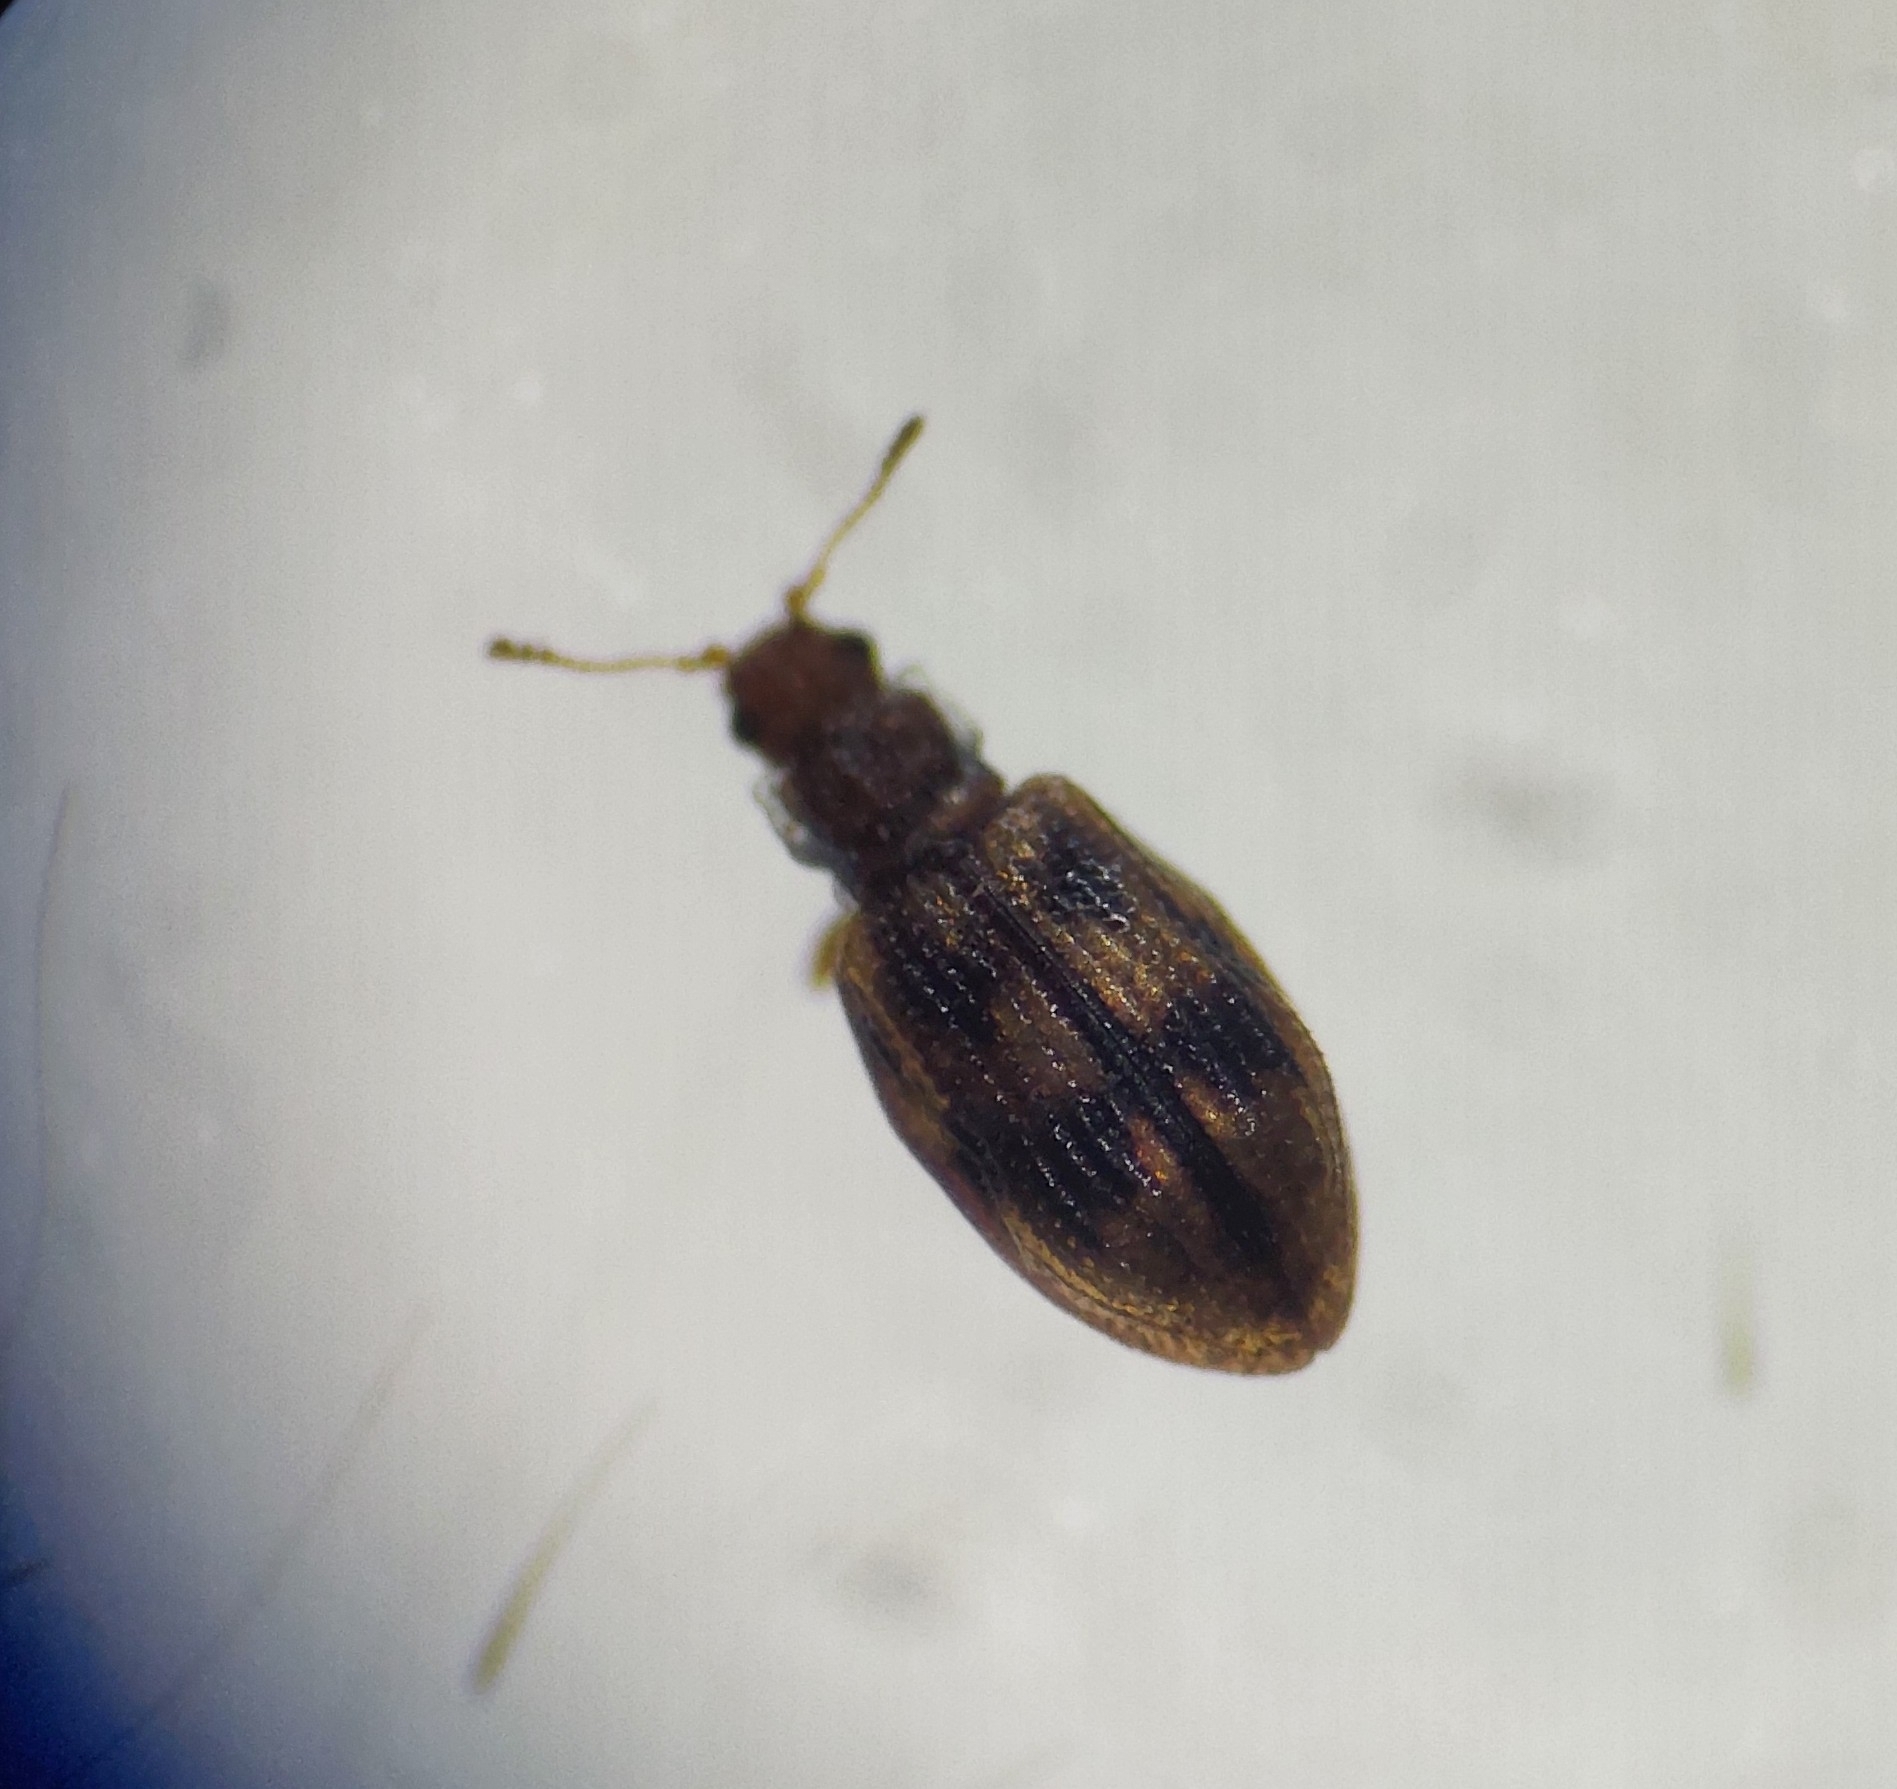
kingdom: Animalia
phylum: Arthropoda
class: Insecta
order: Coleoptera
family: Latridiidae
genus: Cartodere
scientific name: Cartodere bifasciata
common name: Plaster beetle
